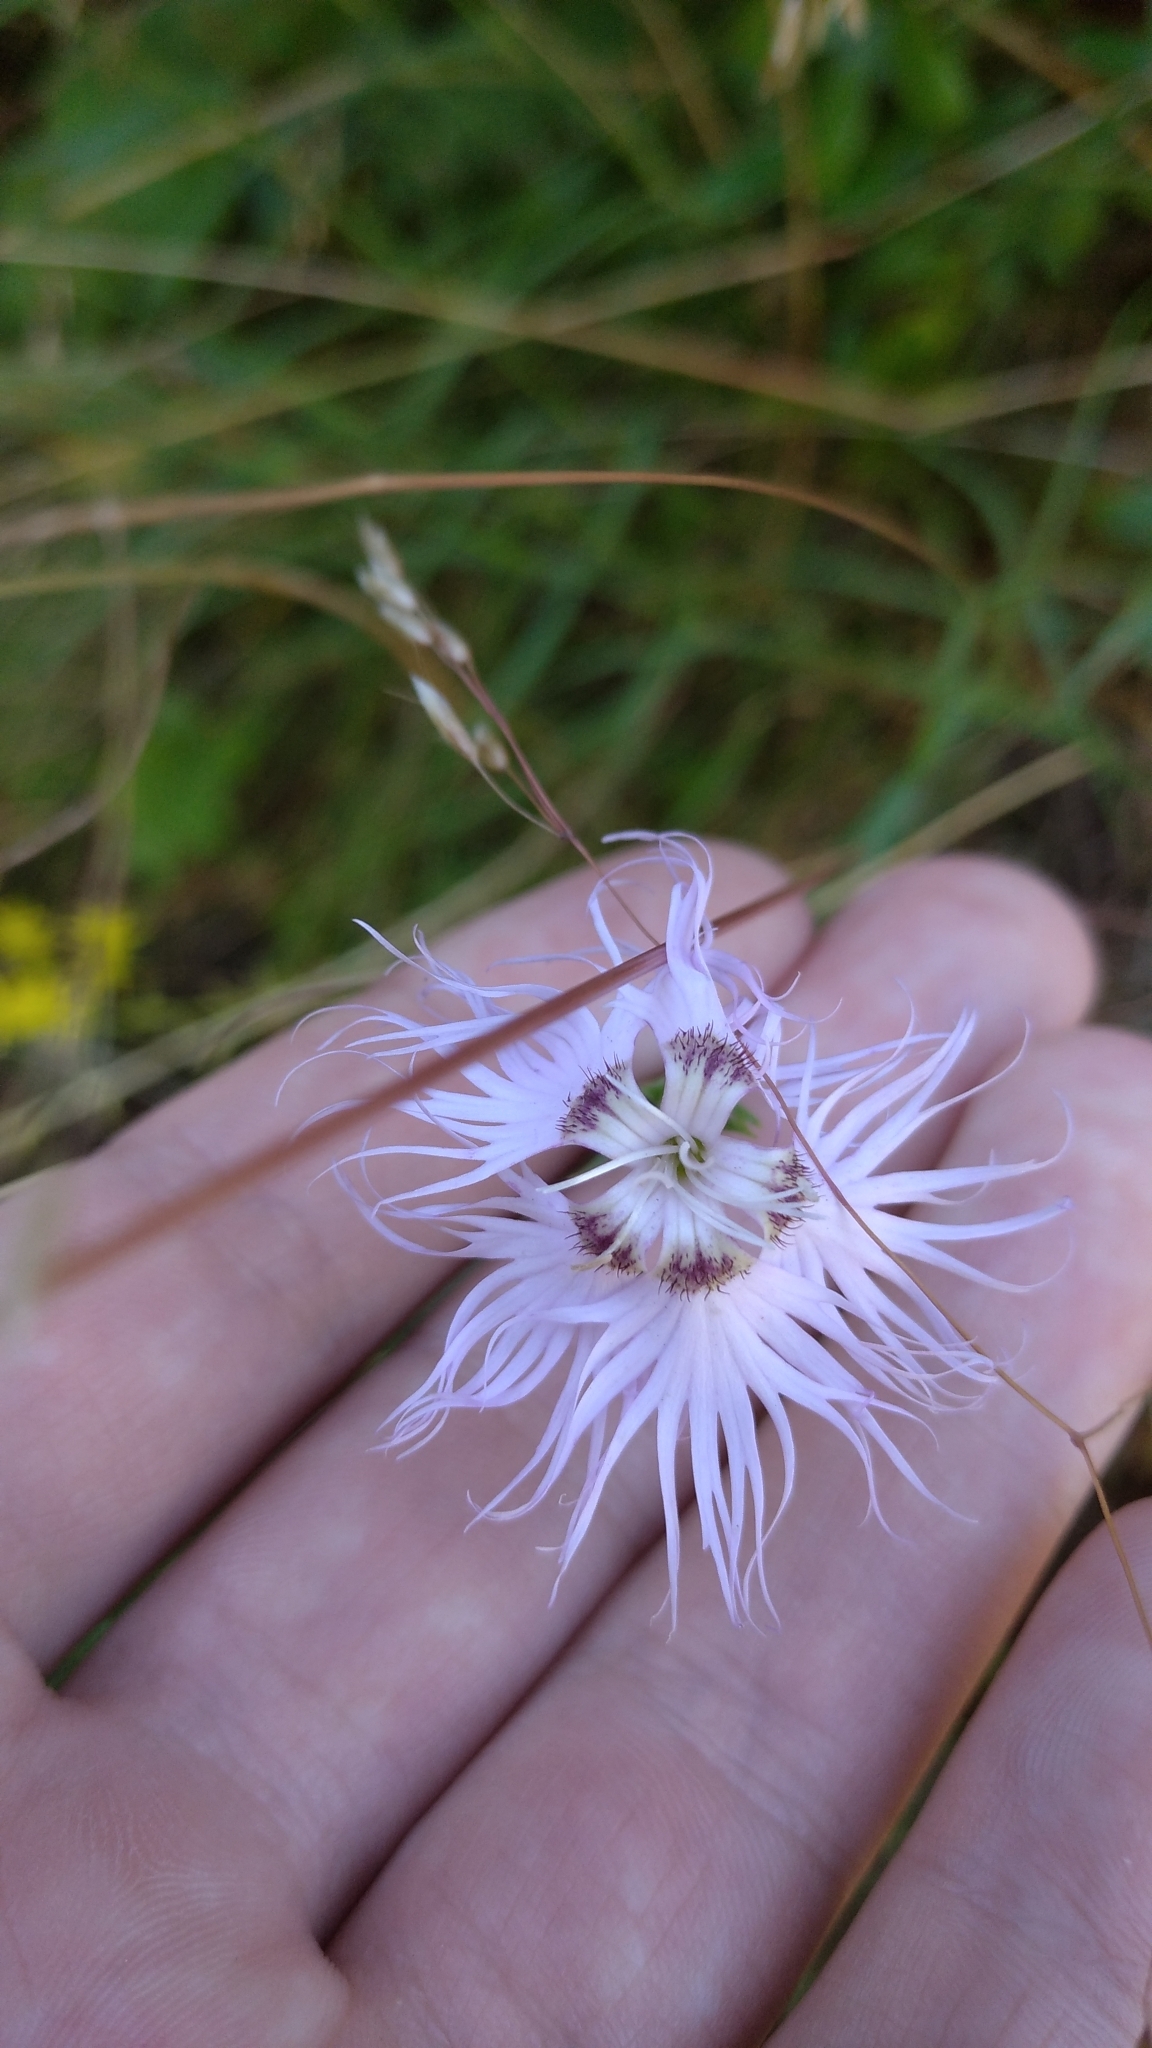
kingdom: Plantae
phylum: Tracheophyta
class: Magnoliopsida
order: Caryophyllales
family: Caryophyllaceae
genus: Dianthus
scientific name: Dianthus hyssopifolius
